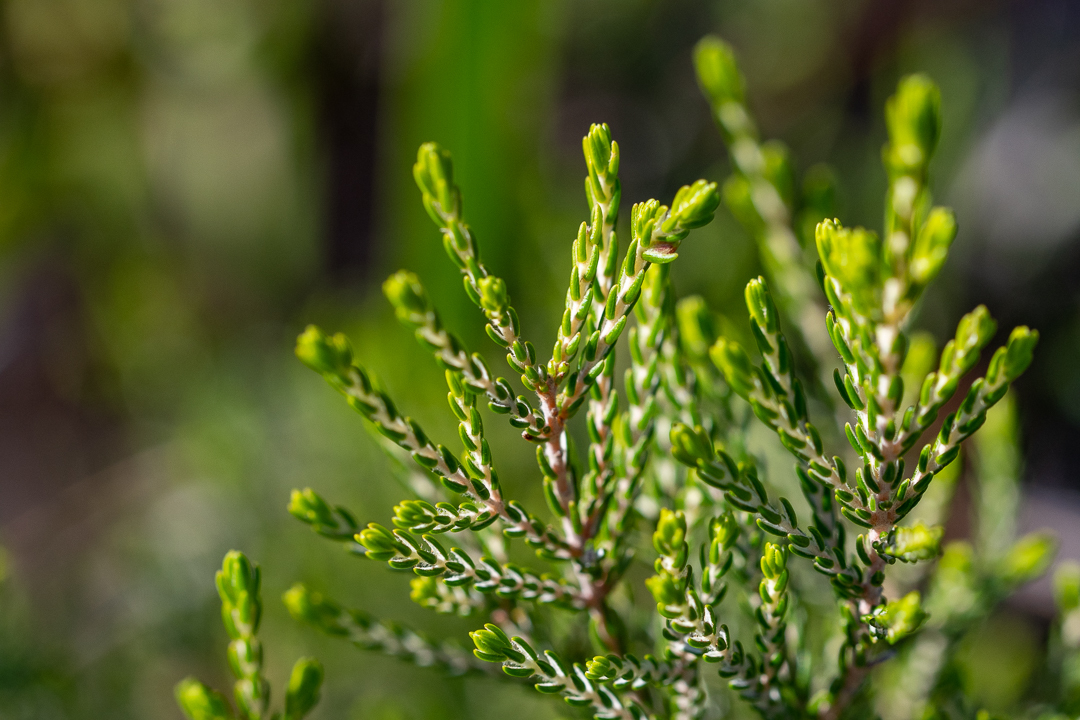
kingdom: Plantae
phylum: Tracheophyta
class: Magnoliopsida
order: Malvales
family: Thymelaeaceae
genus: Passerina
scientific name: Passerina corymbosa
